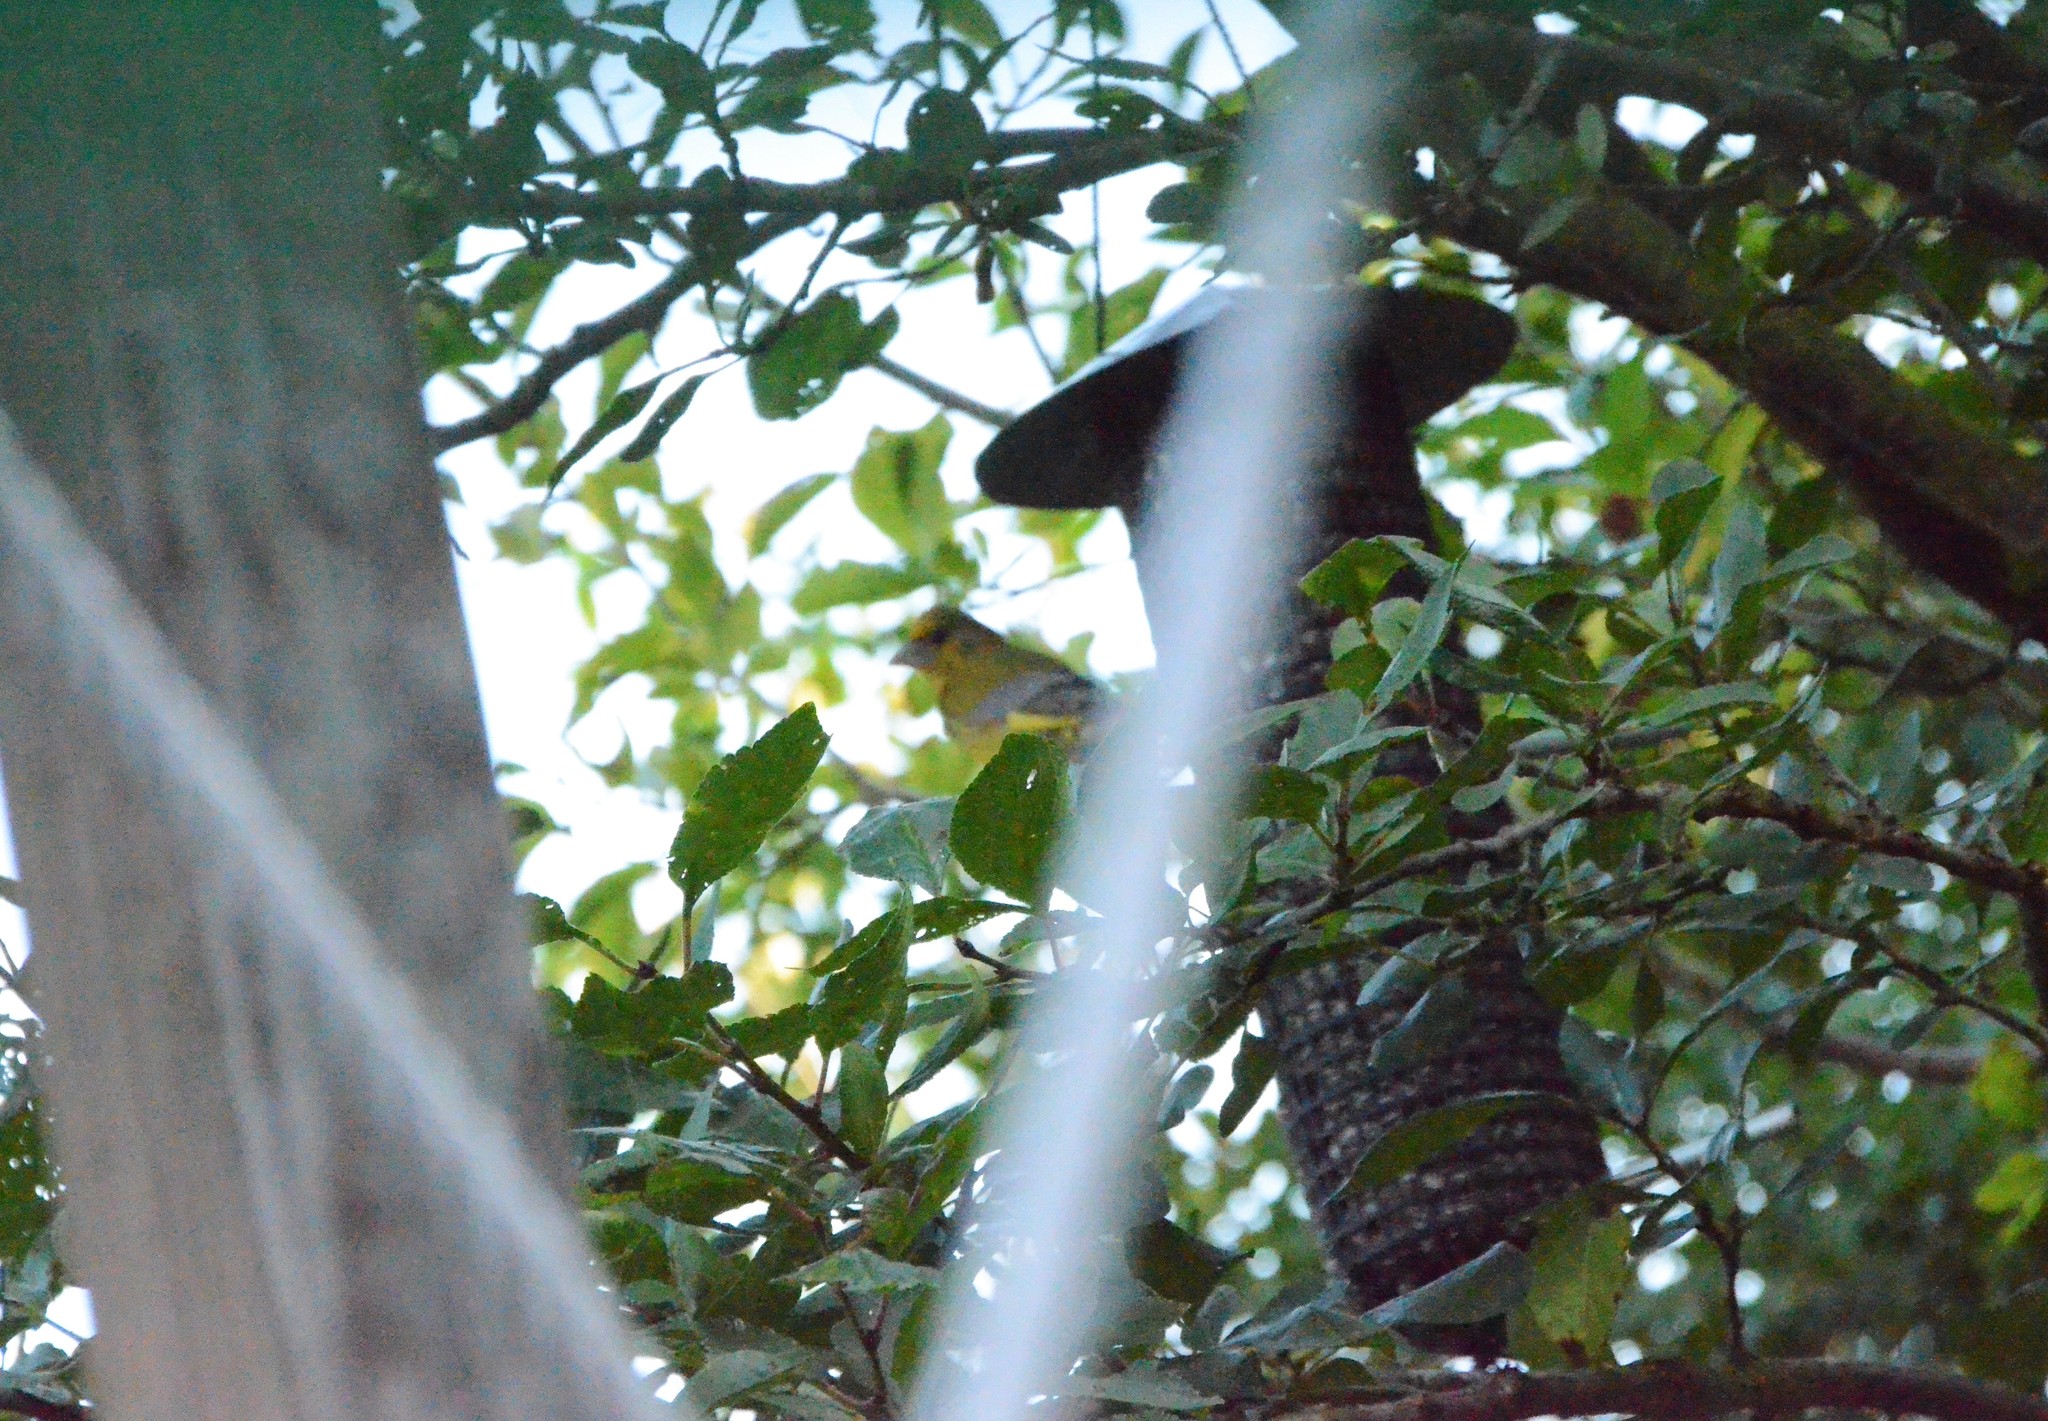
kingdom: Plantae
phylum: Tracheophyta
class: Liliopsida
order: Poales
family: Poaceae
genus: Chloris
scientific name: Chloris chloris
